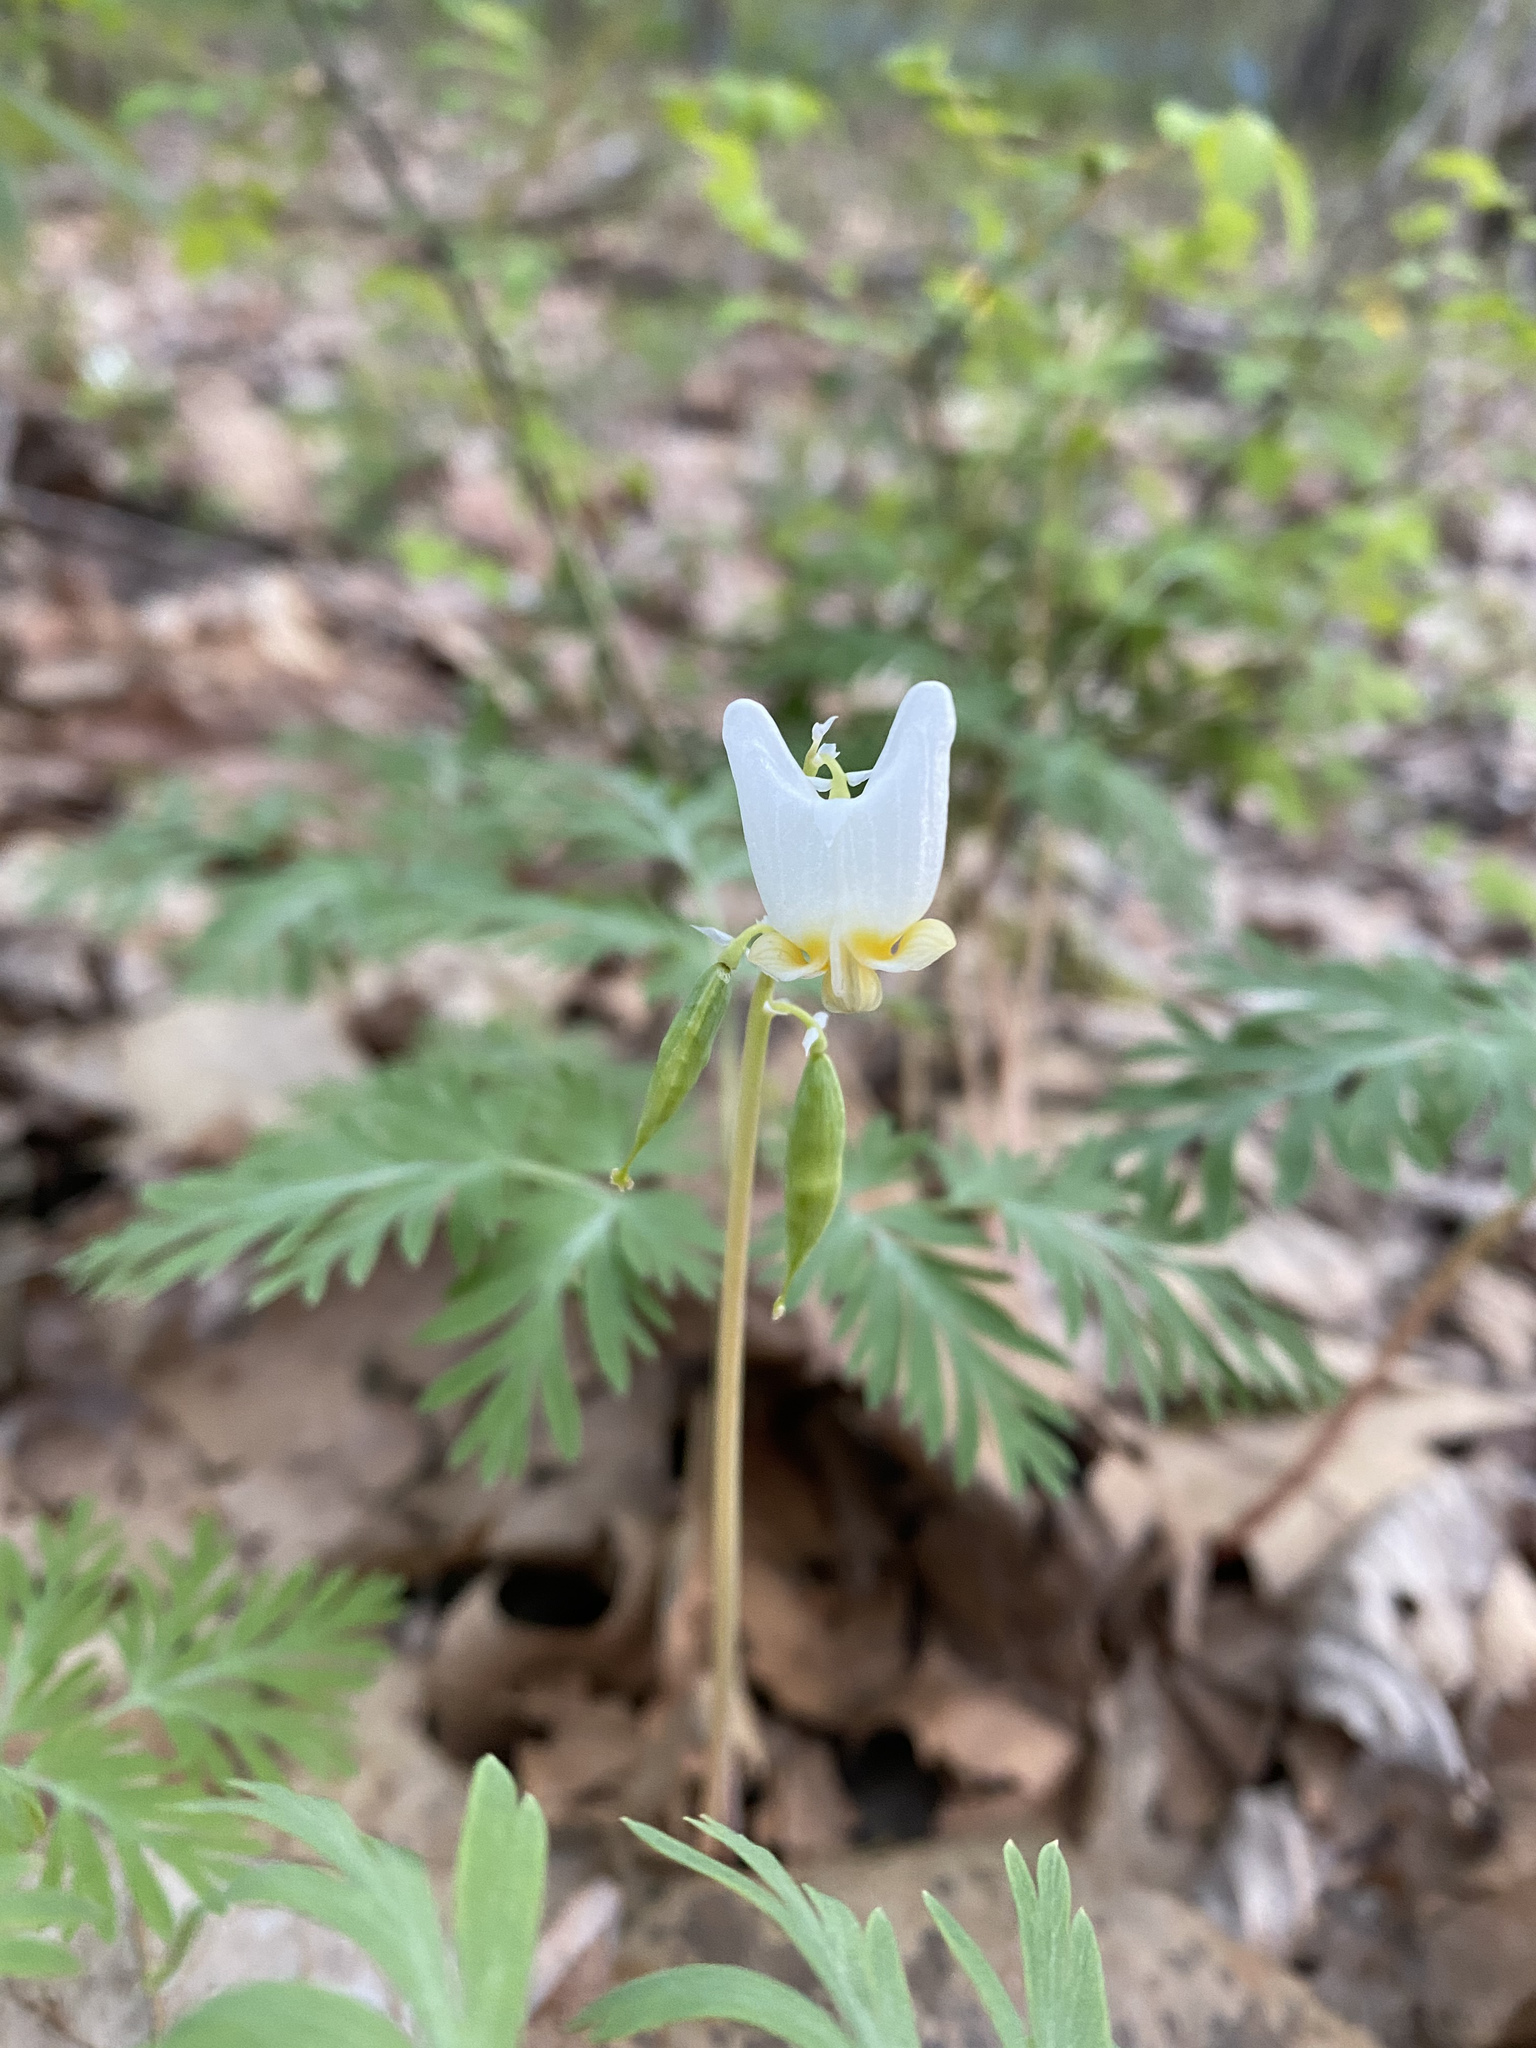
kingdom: Plantae
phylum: Tracheophyta
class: Magnoliopsida
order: Ranunculales
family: Papaveraceae
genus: Dicentra
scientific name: Dicentra cucullaria
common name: Dutchman's breeches
